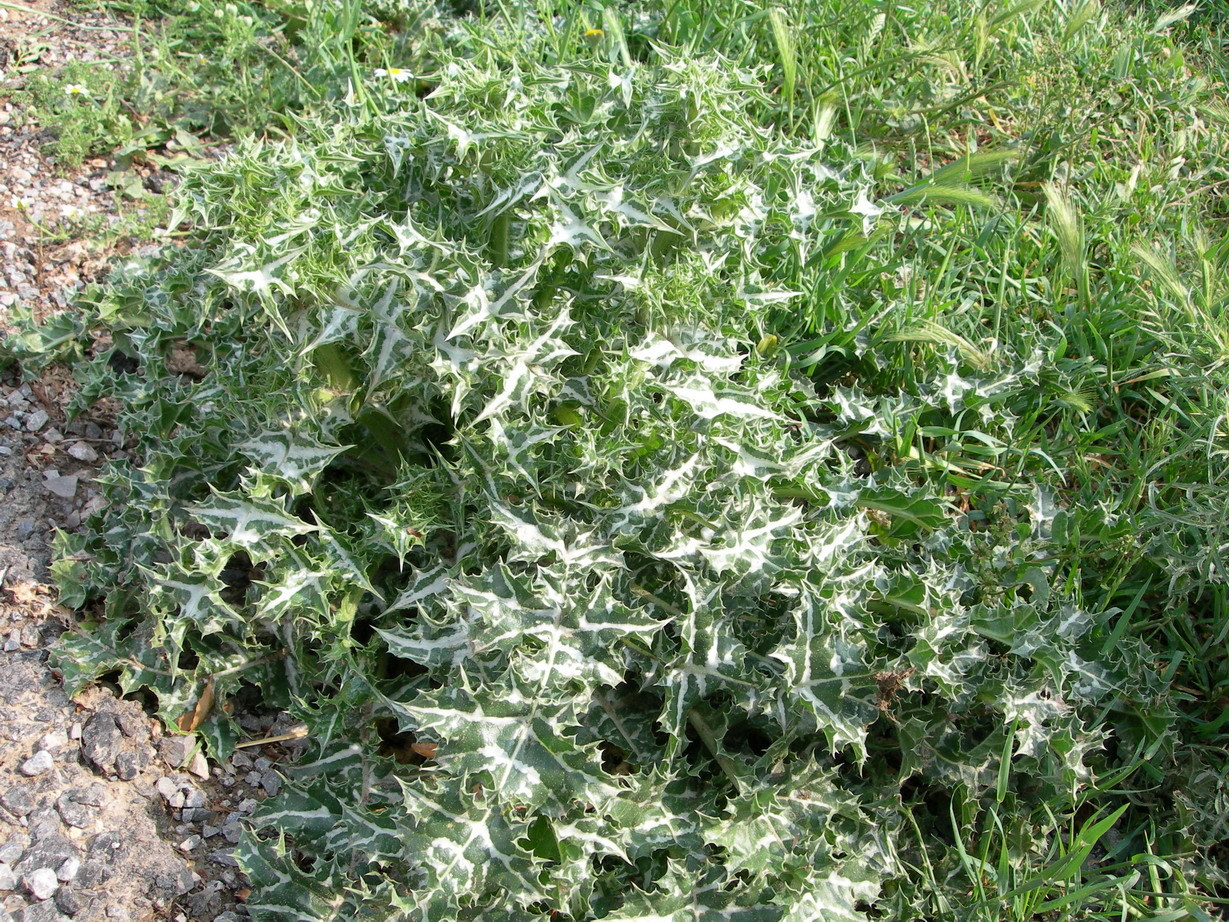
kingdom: Plantae
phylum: Tracheophyta
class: Magnoliopsida
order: Asterales
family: Asteraceae
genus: Silybum
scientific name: Silybum marianum
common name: Milk thistle
